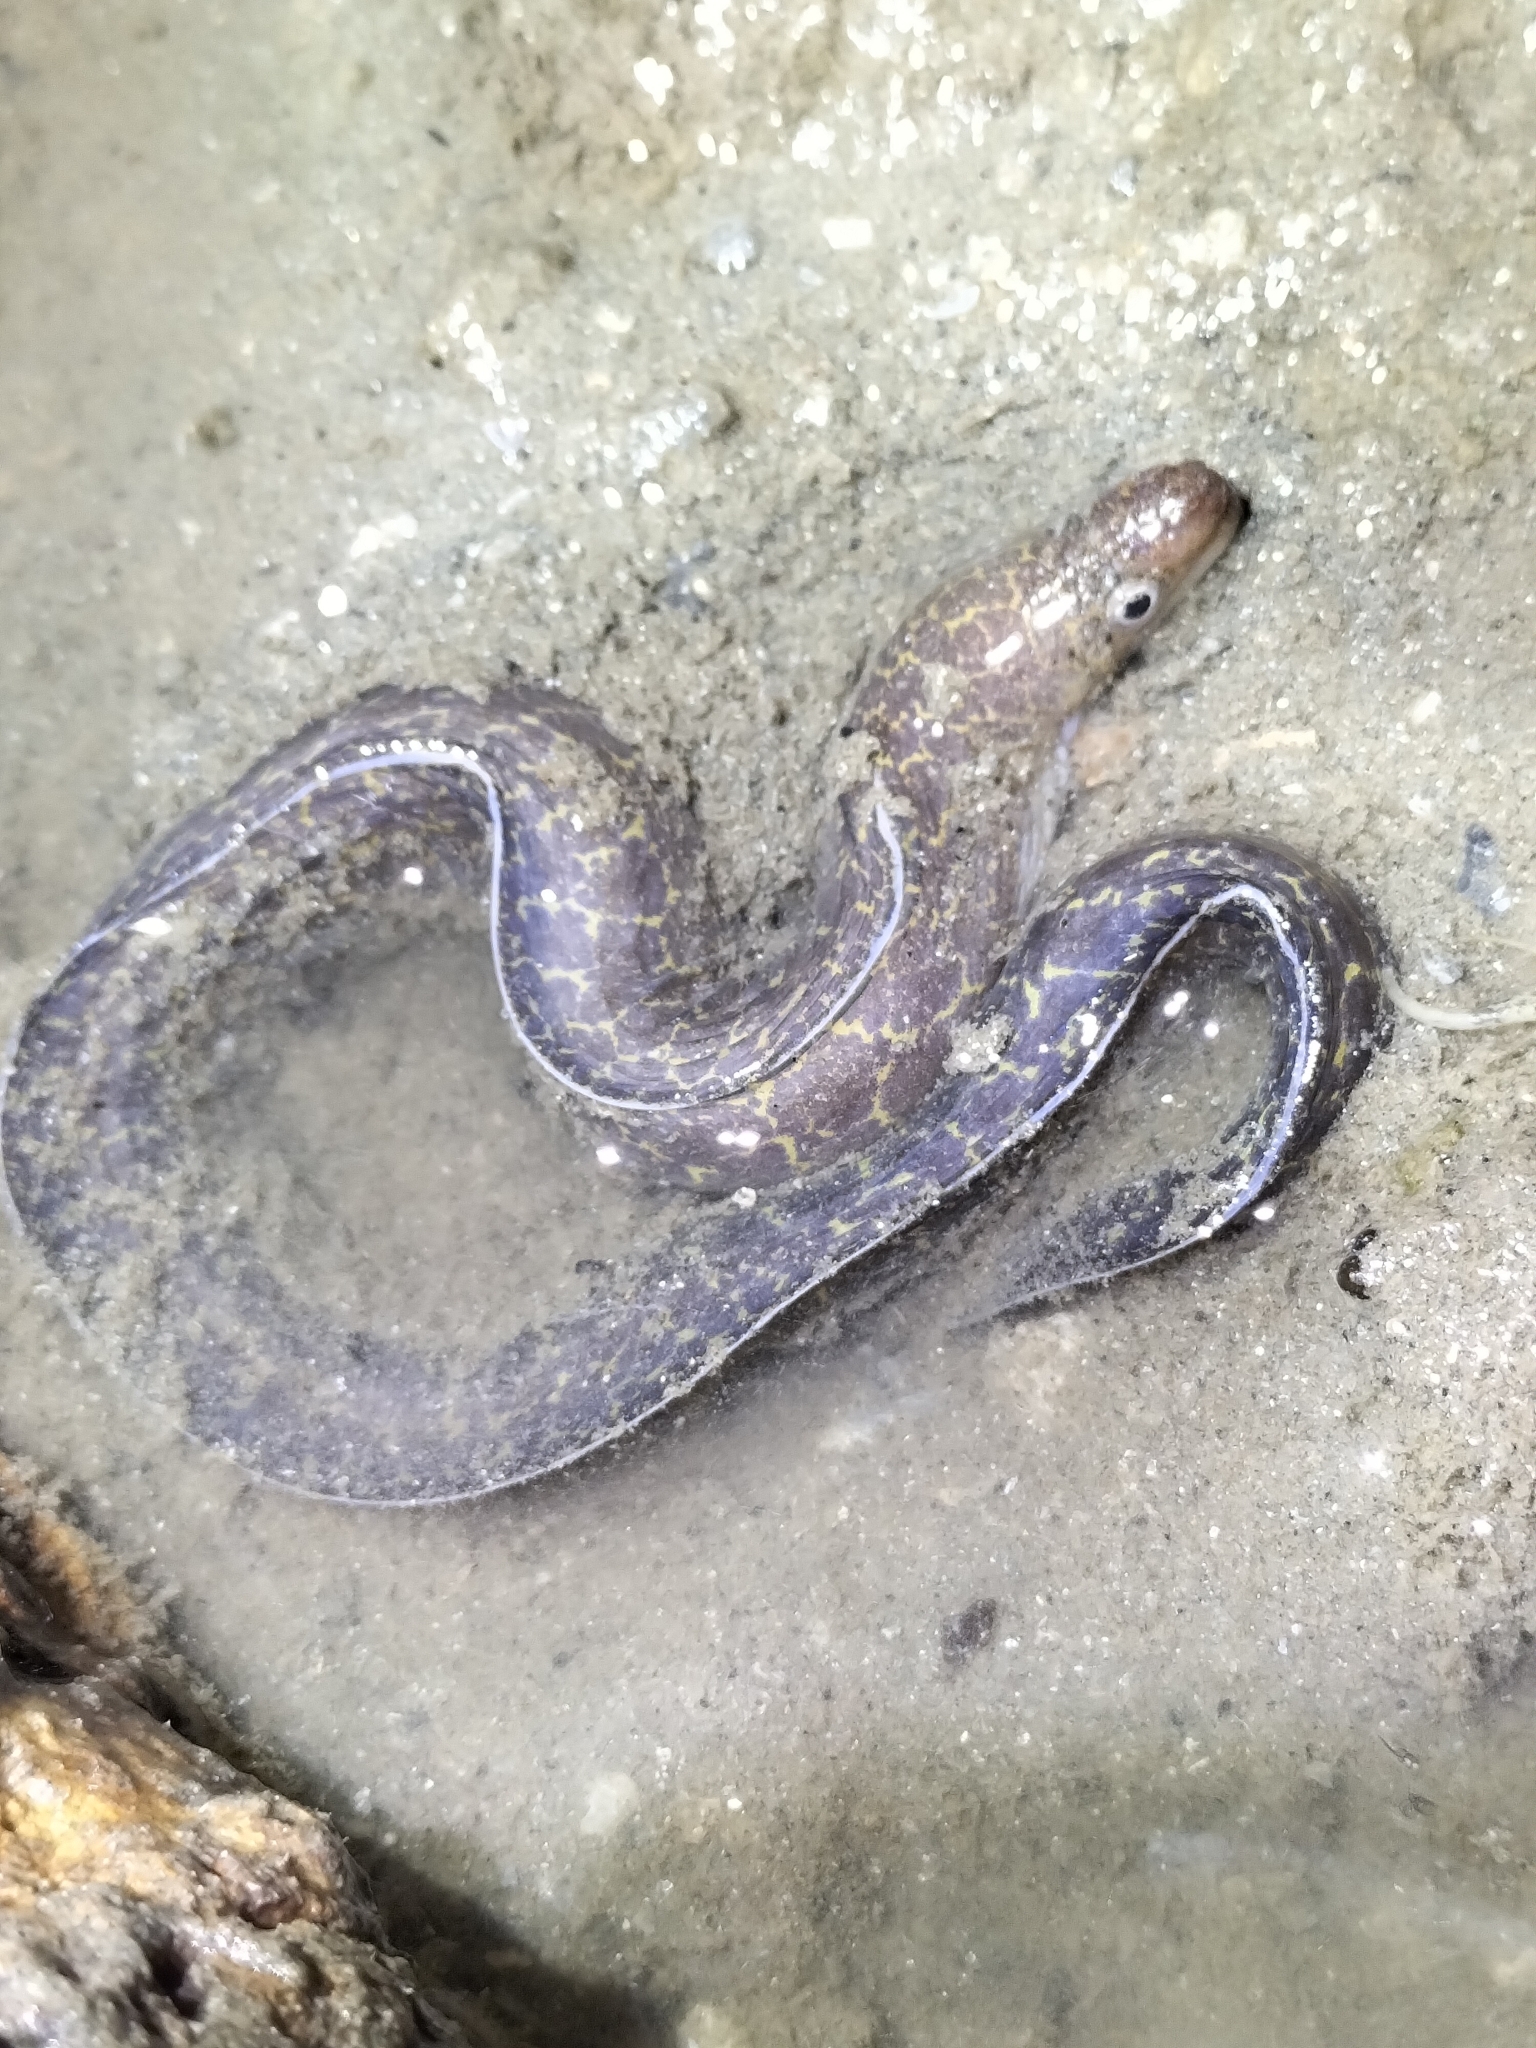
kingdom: Animalia
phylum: Chordata
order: Anguilliformes
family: Muraenidae
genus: Gymnothorax
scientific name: Gymnothorax pseudothyrsoideus
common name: Highfin moray
